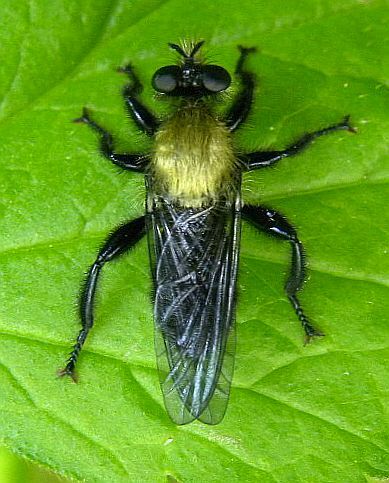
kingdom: Animalia
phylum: Arthropoda
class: Insecta
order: Diptera
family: Asilidae
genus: Laphria
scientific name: Laphria flavicollis
